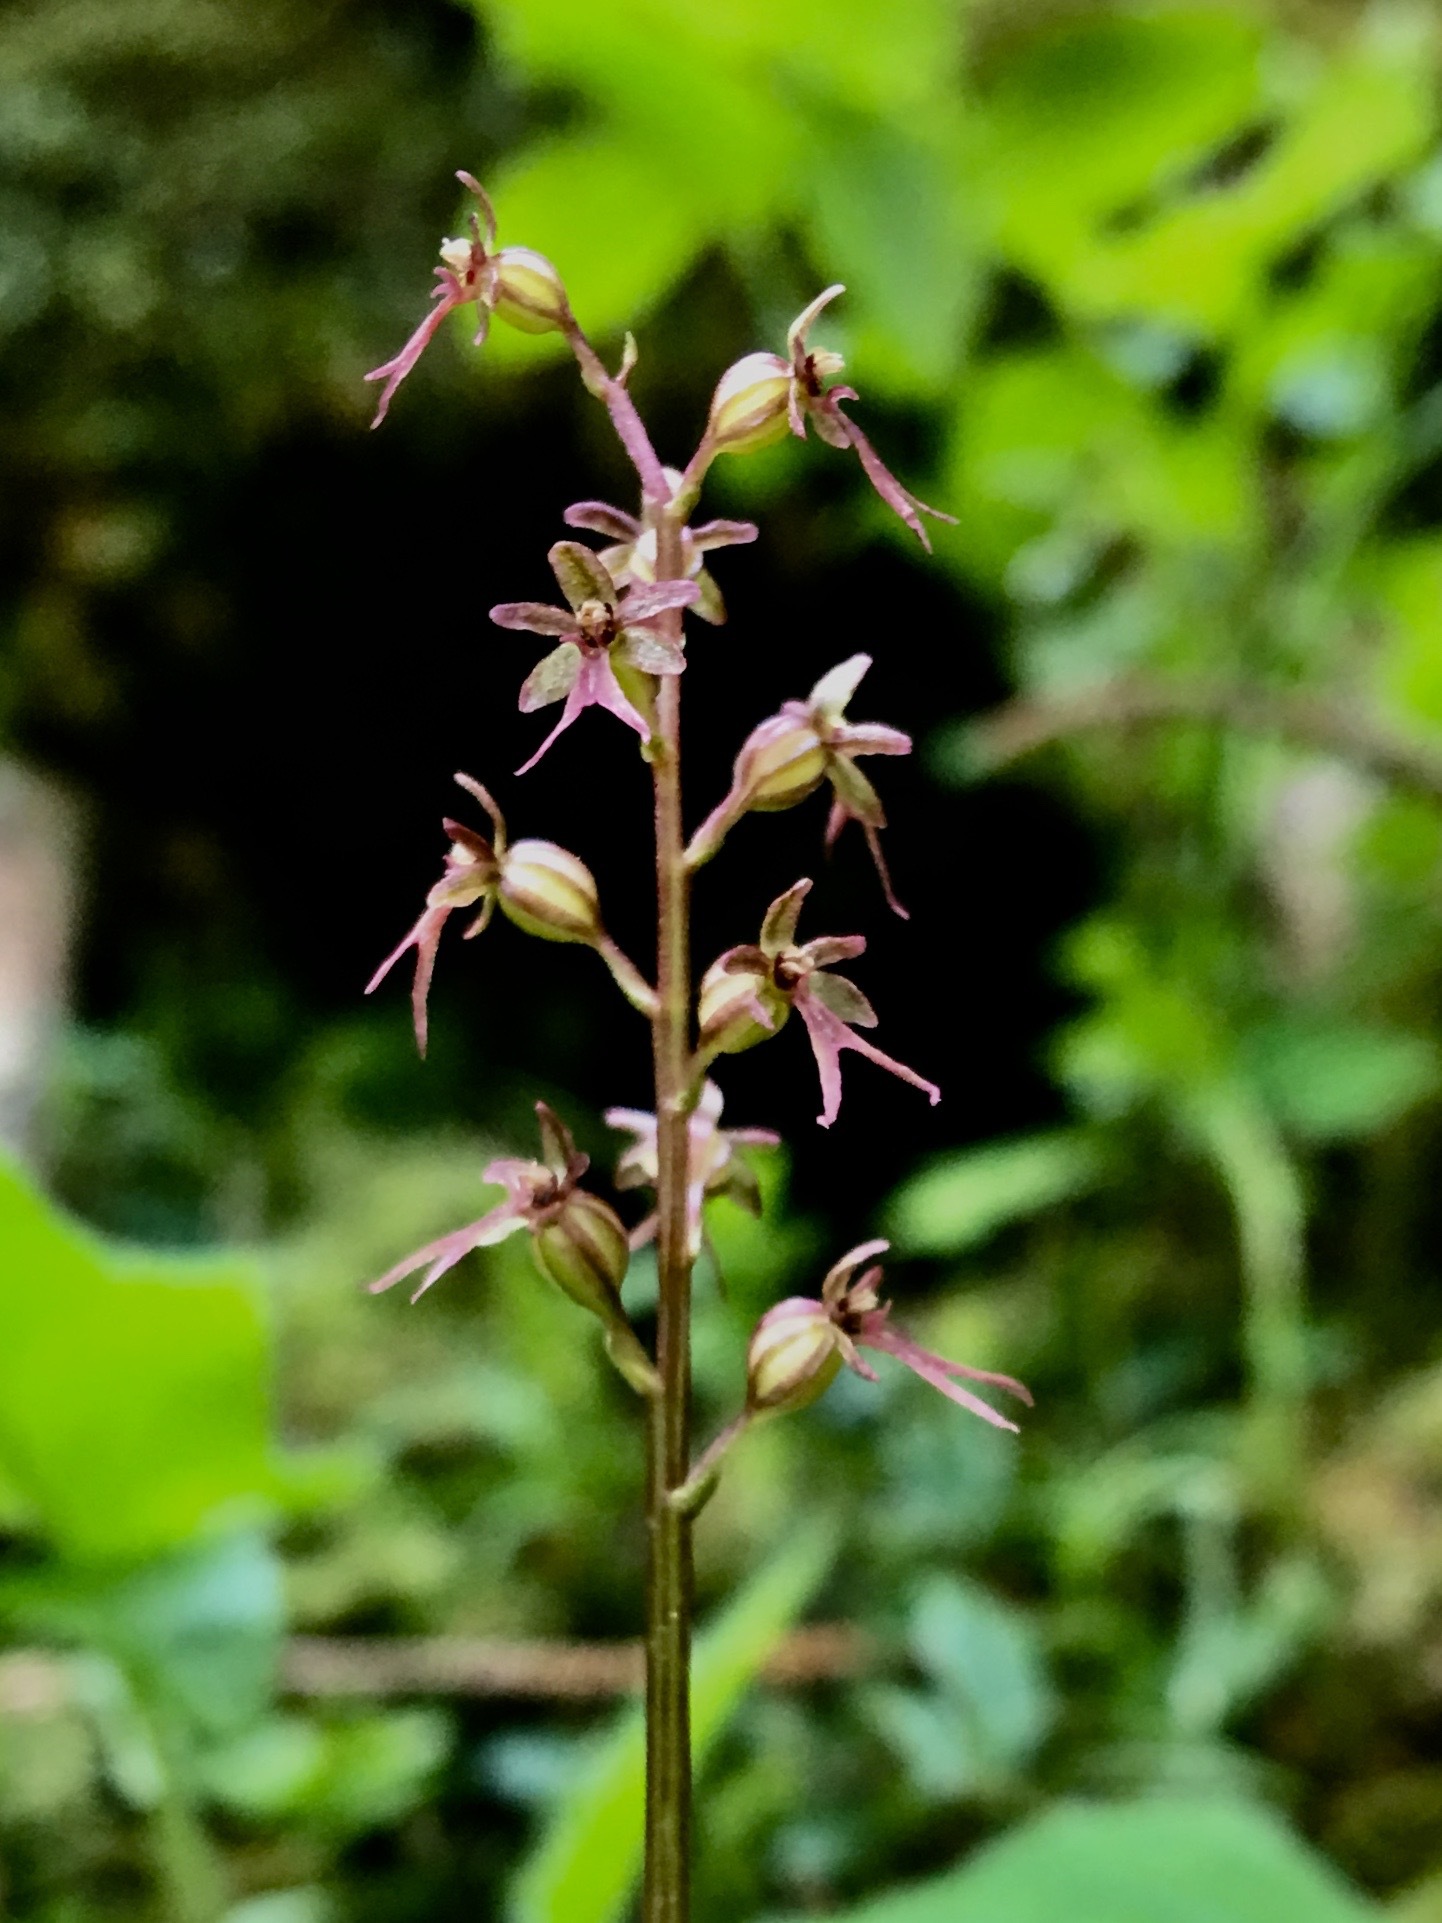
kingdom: Plantae
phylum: Tracheophyta
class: Liliopsida
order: Asparagales
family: Orchidaceae
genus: Neottia
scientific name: Neottia cordata
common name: Lesser twayblade
